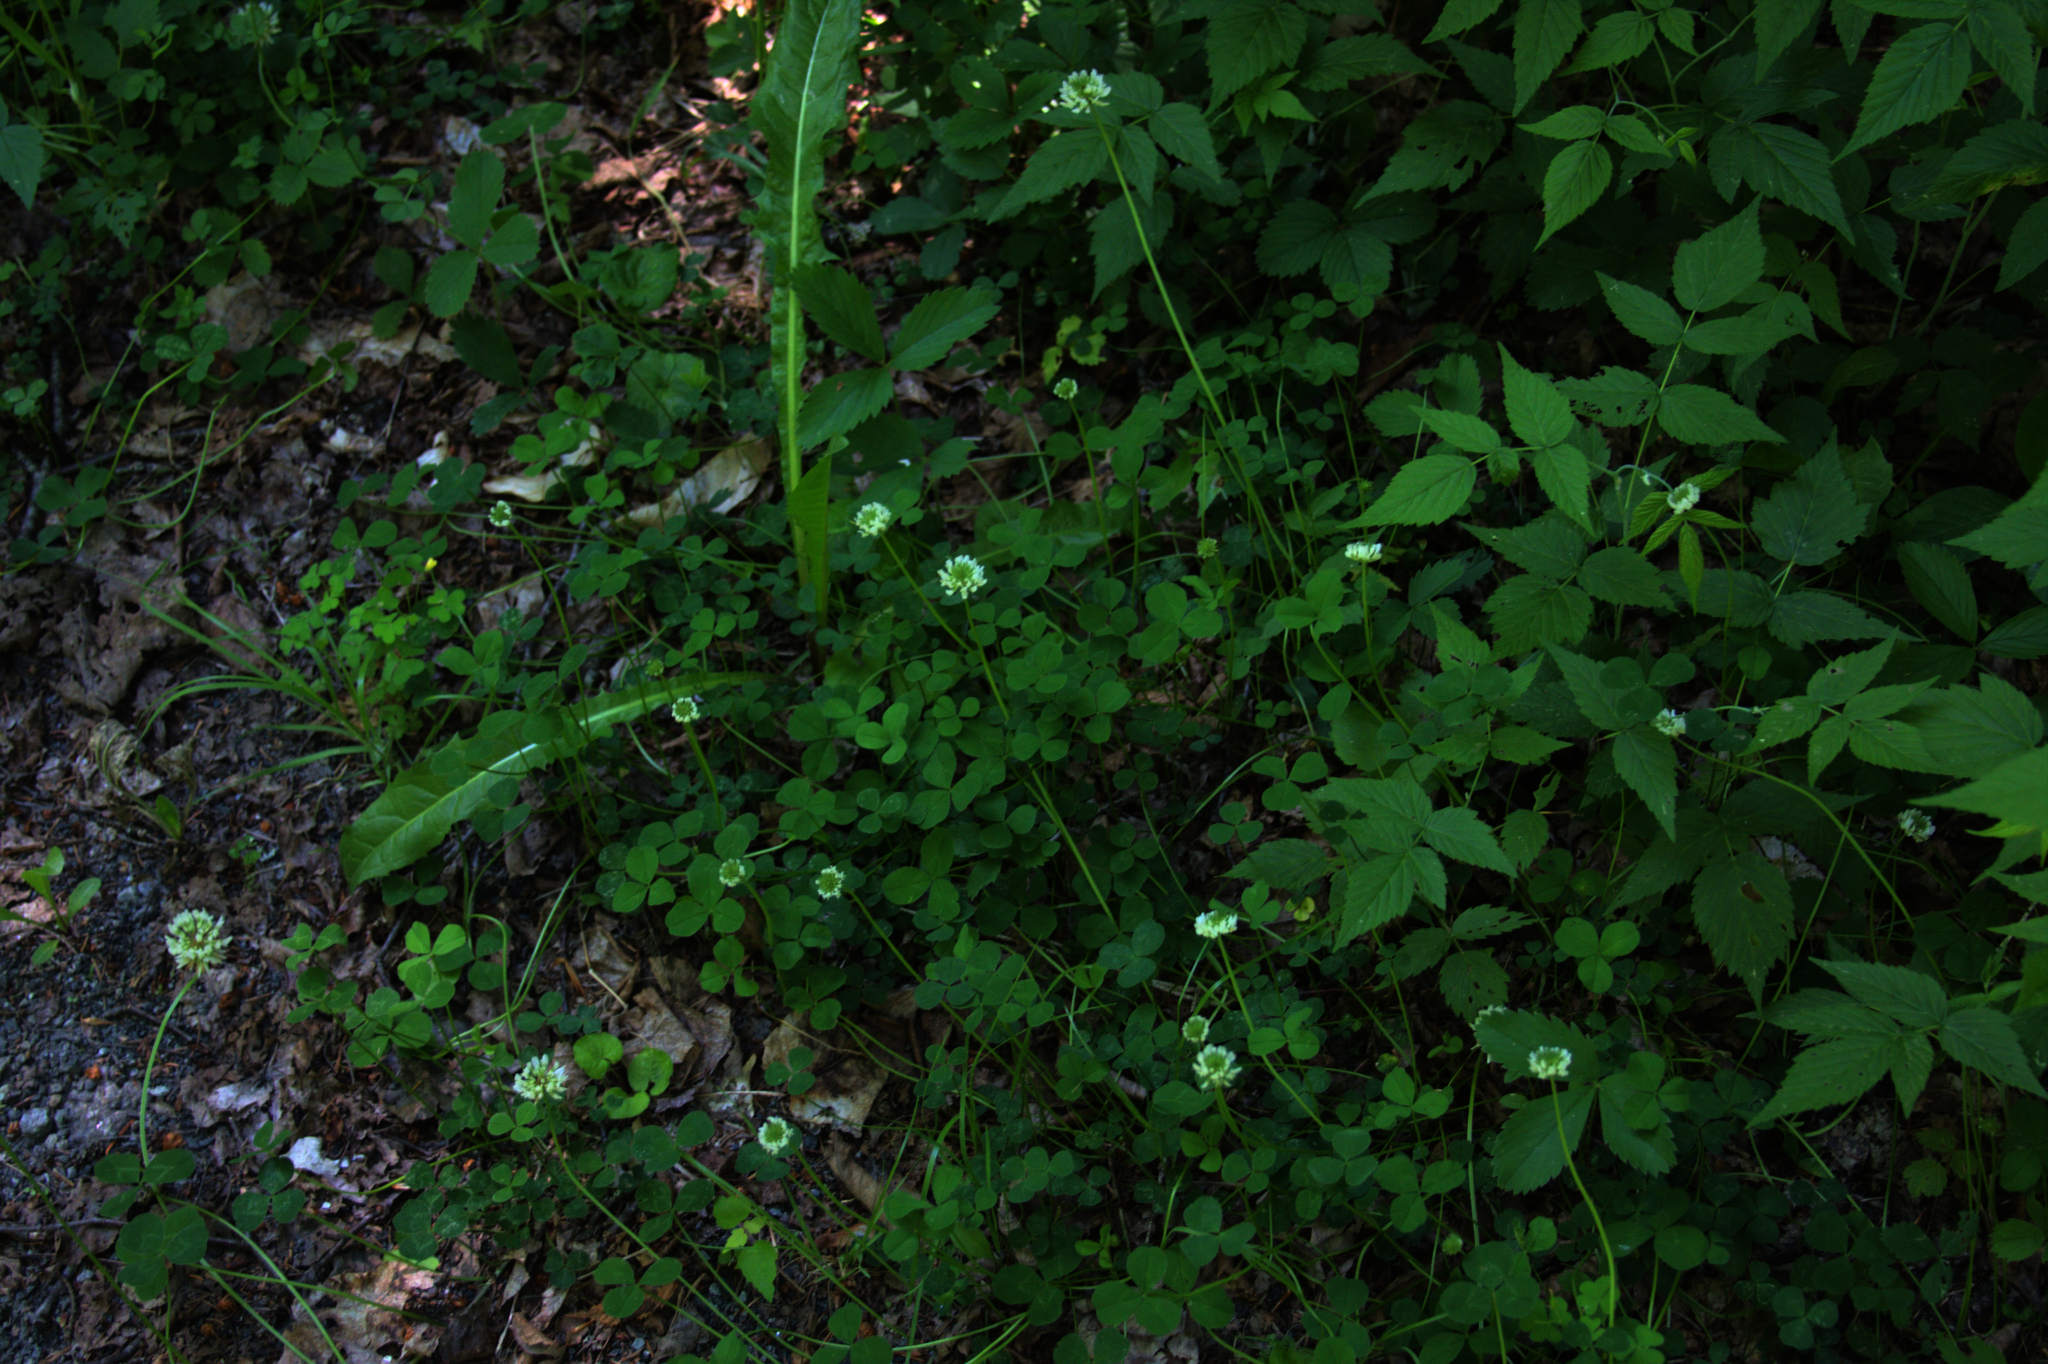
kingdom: Plantae
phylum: Tracheophyta
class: Magnoliopsida
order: Fabales
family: Fabaceae
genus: Trifolium
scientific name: Trifolium repens
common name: White clover
